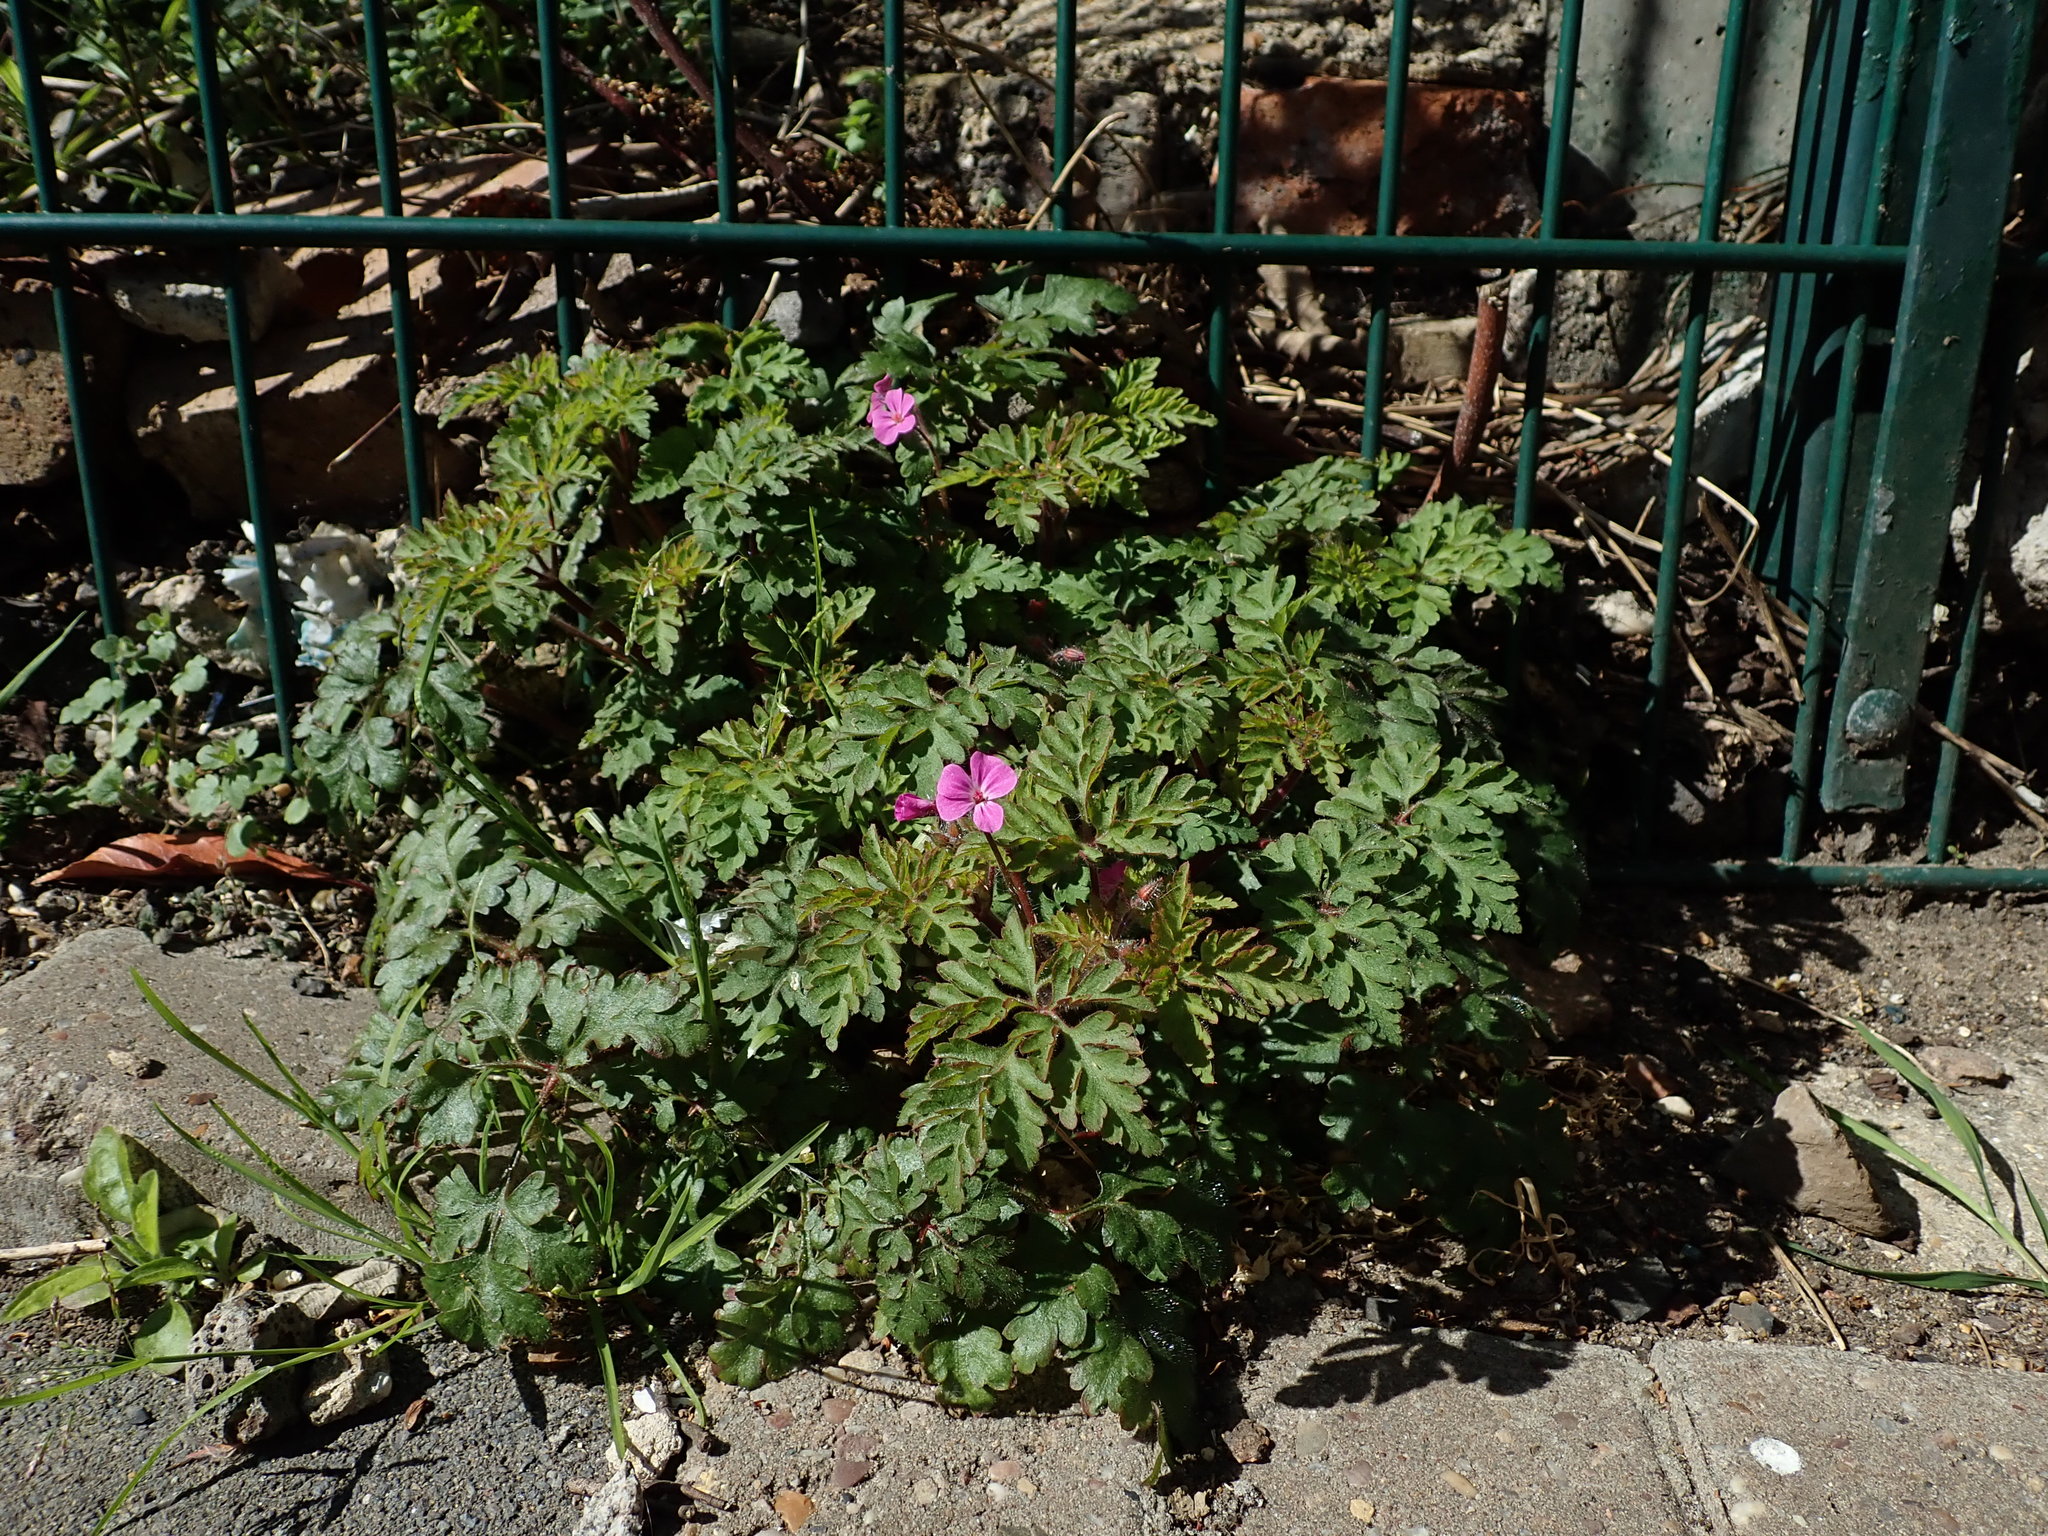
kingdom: Plantae
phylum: Tracheophyta
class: Magnoliopsida
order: Geraniales
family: Geraniaceae
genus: Geranium
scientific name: Geranium robertianum
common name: Herb-robert
